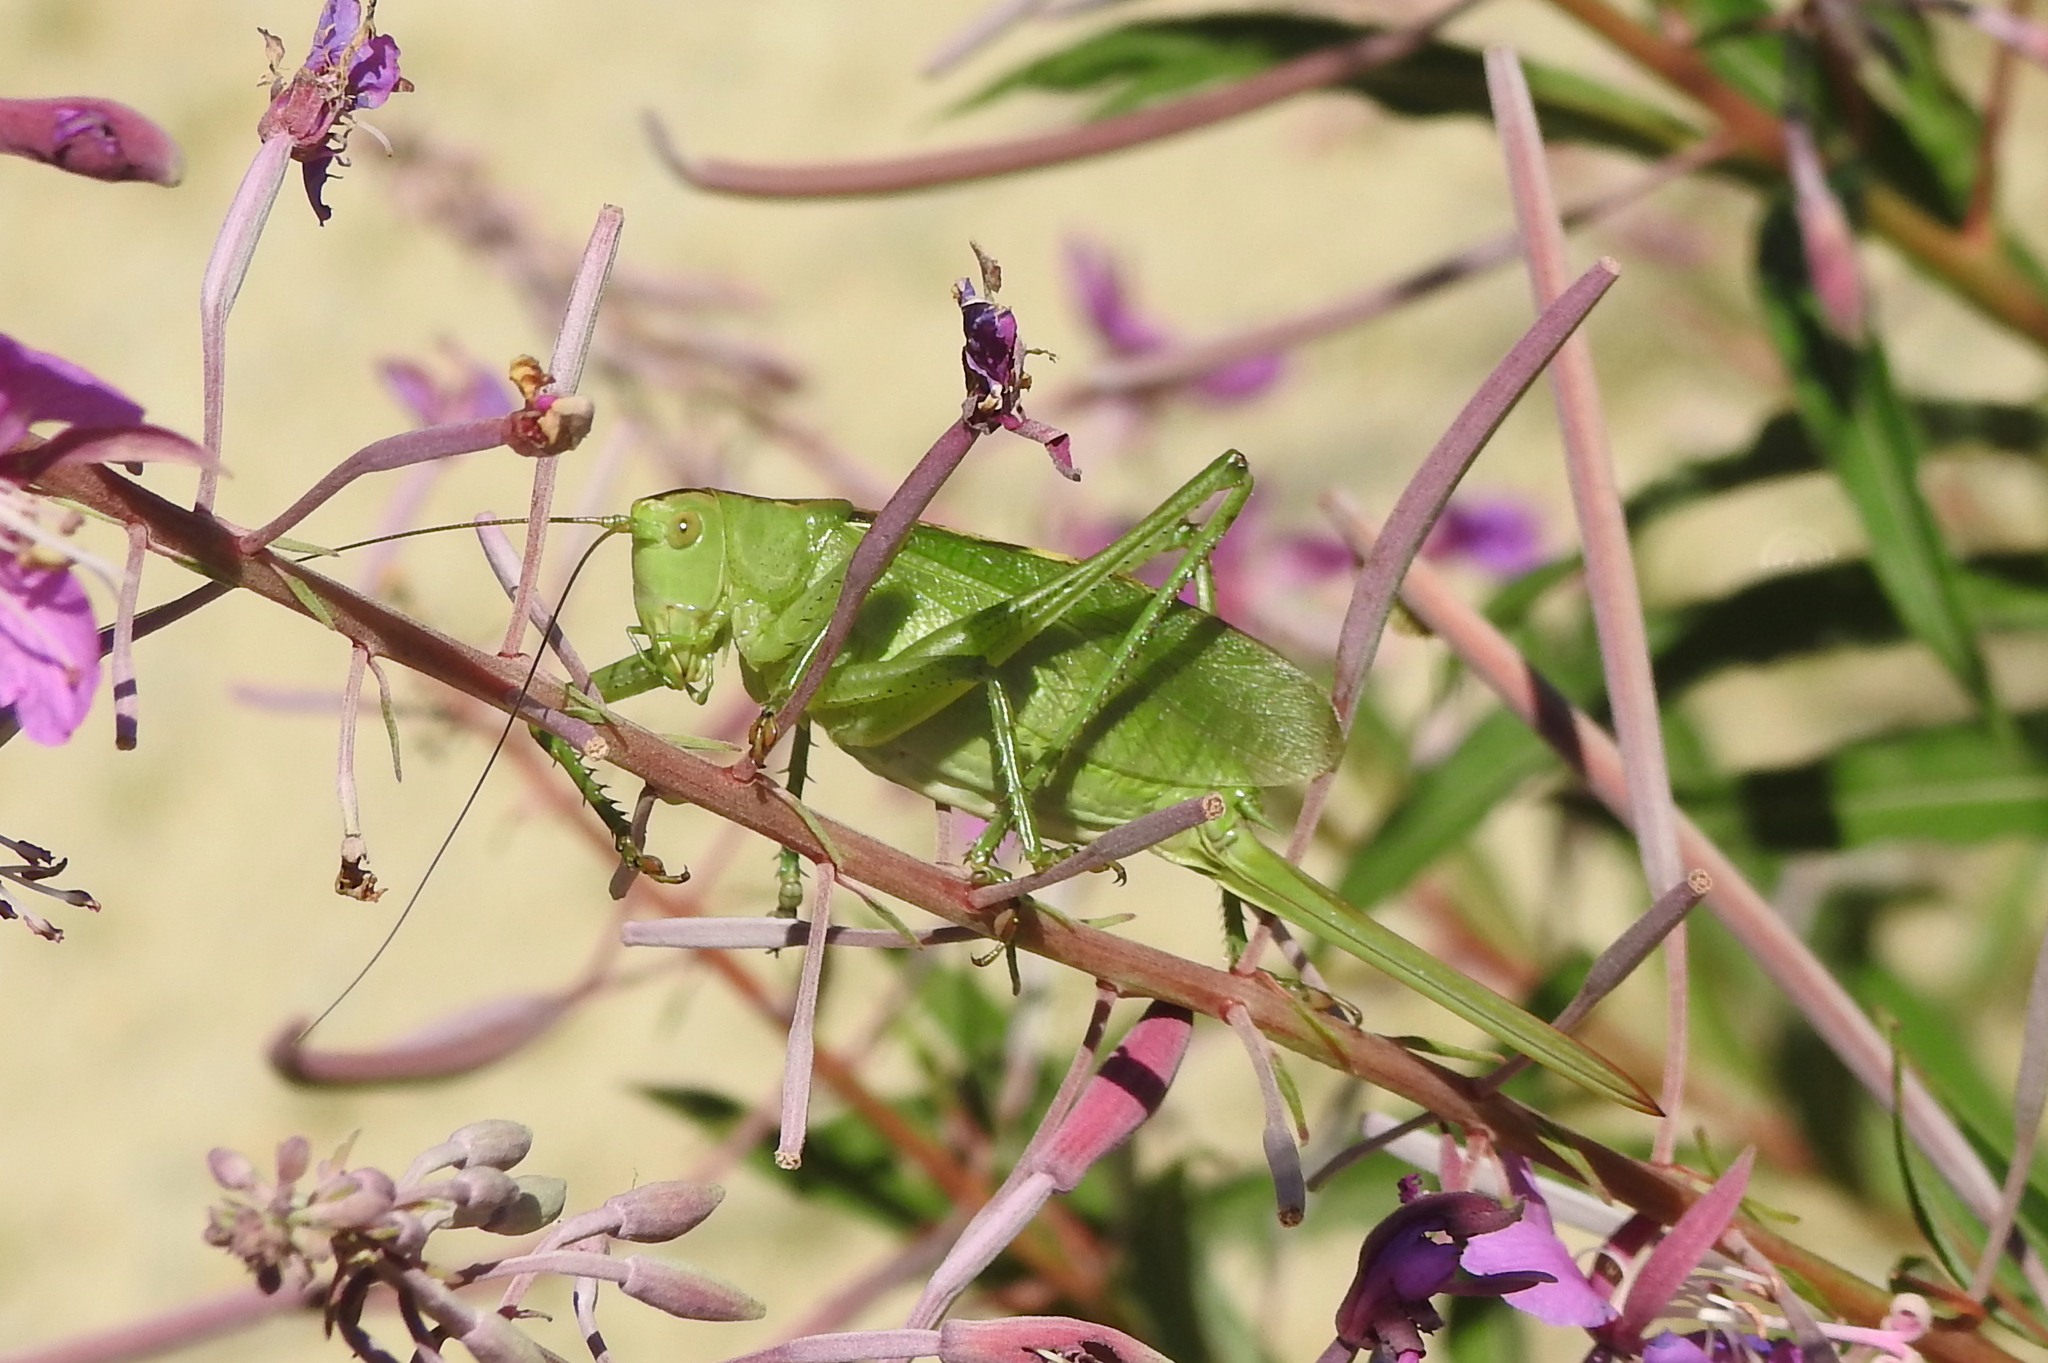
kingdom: Animalia
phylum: Arthropoda
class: Insecta
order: Orthoptera
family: Tettigoniidae
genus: Tettigonia
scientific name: Tettigonia cantans
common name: Upland green bush-cricket
